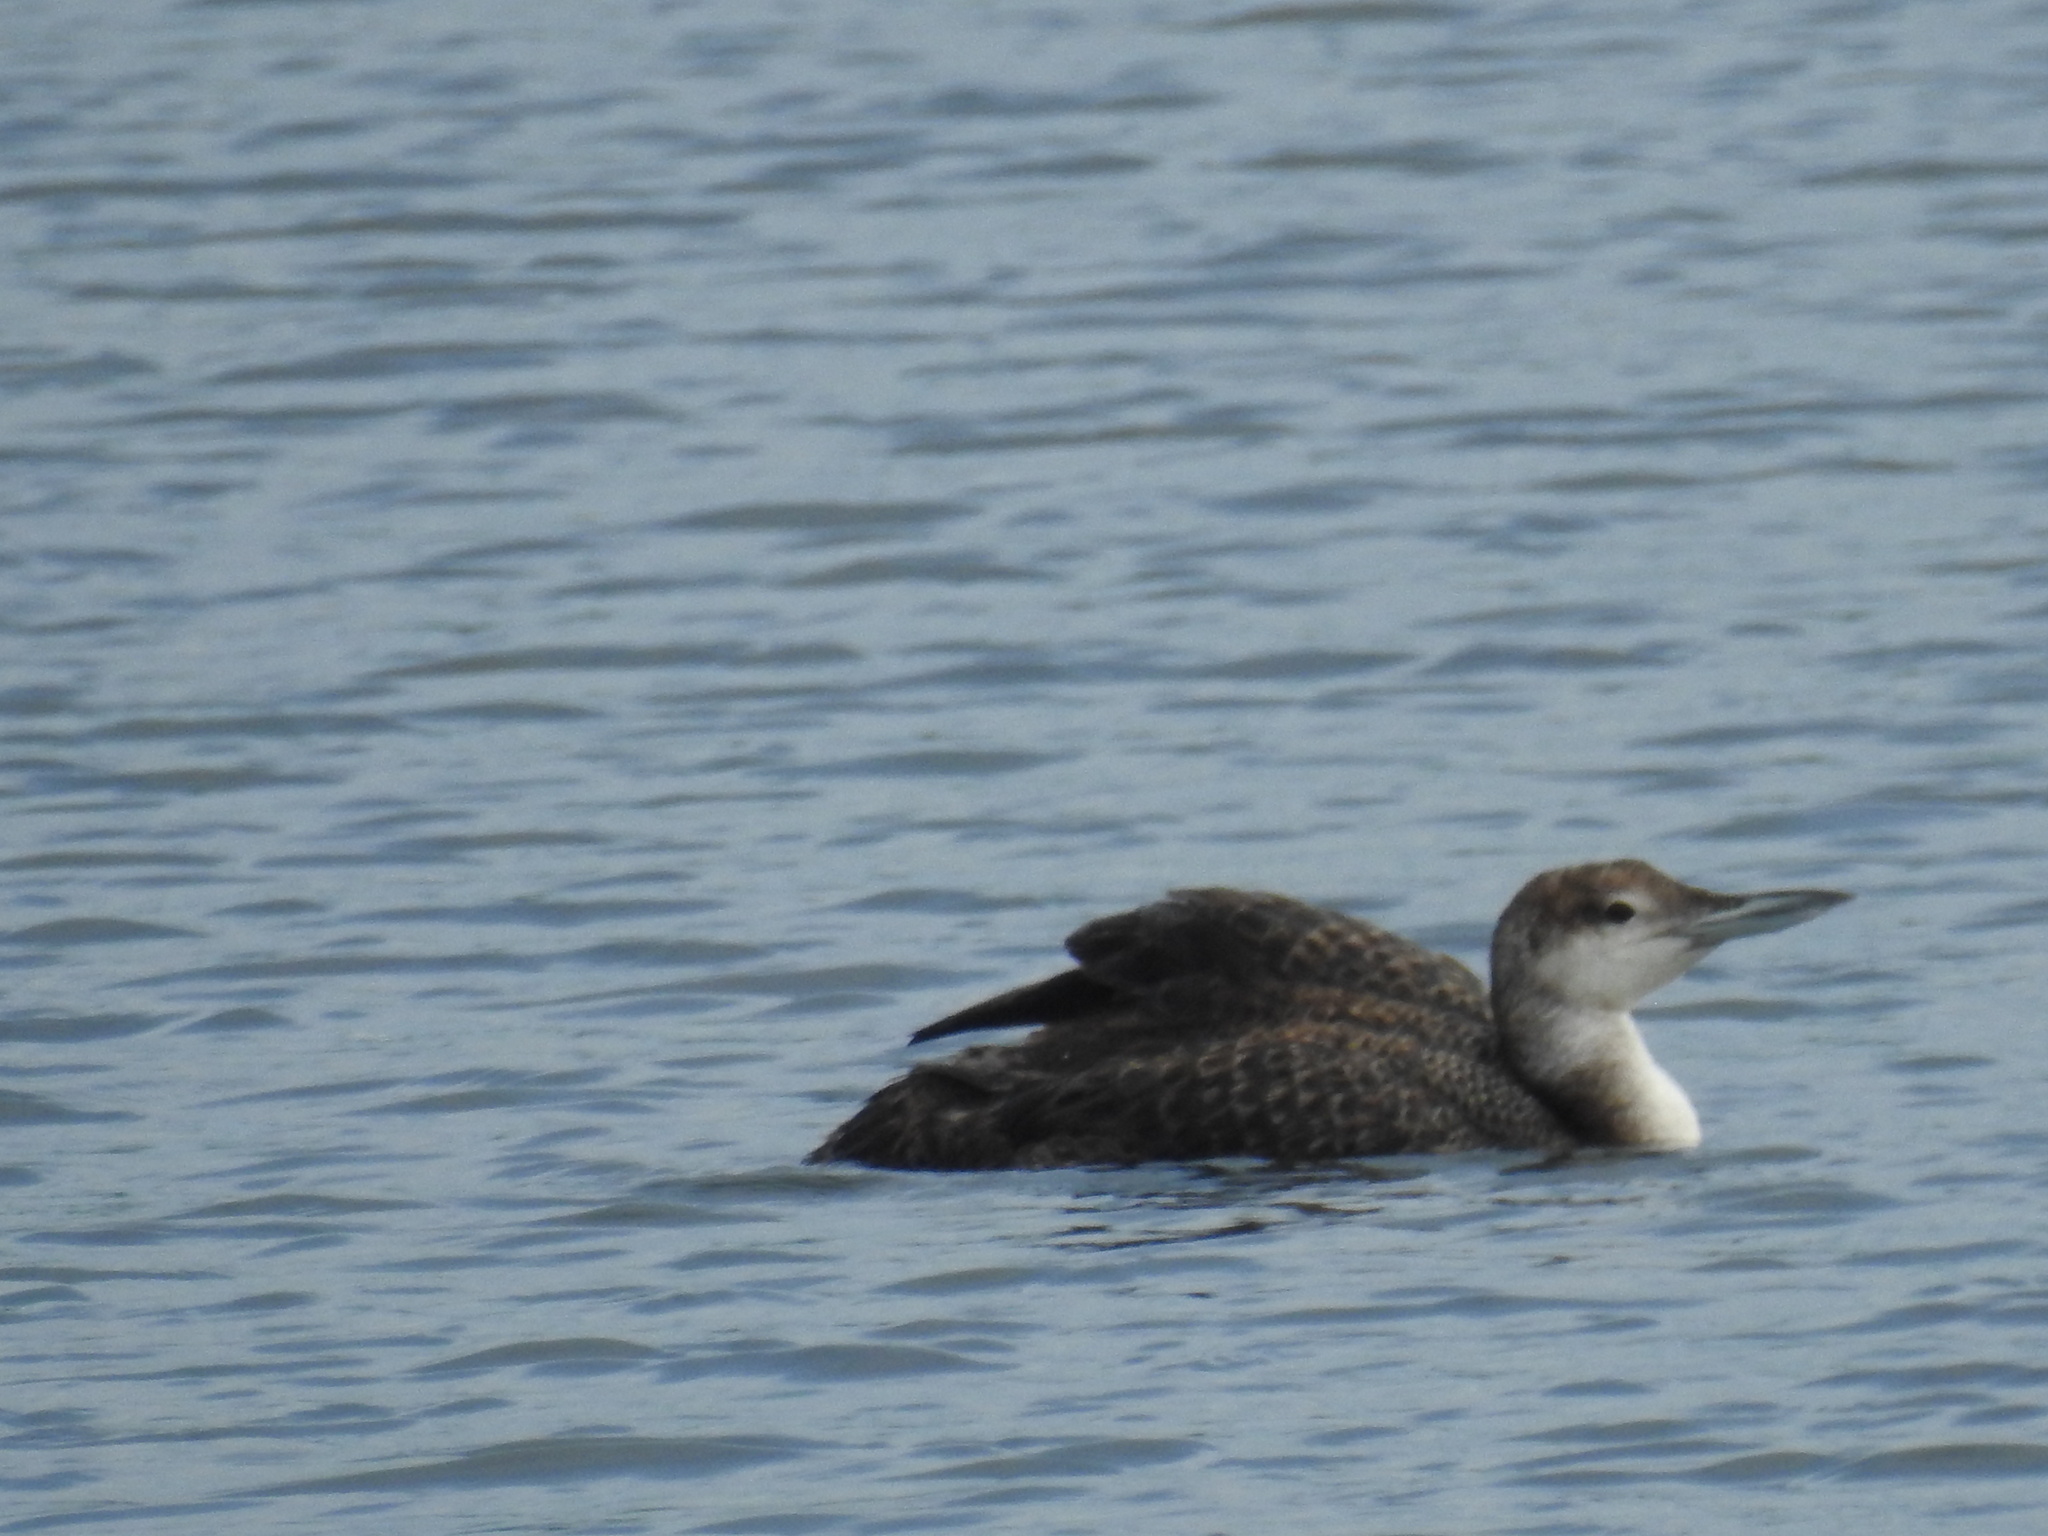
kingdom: Animalia
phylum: Chordata
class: Aves
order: Gaviiformes
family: Gaviidae
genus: Gavia
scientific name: Gavia immer
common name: Common loon
